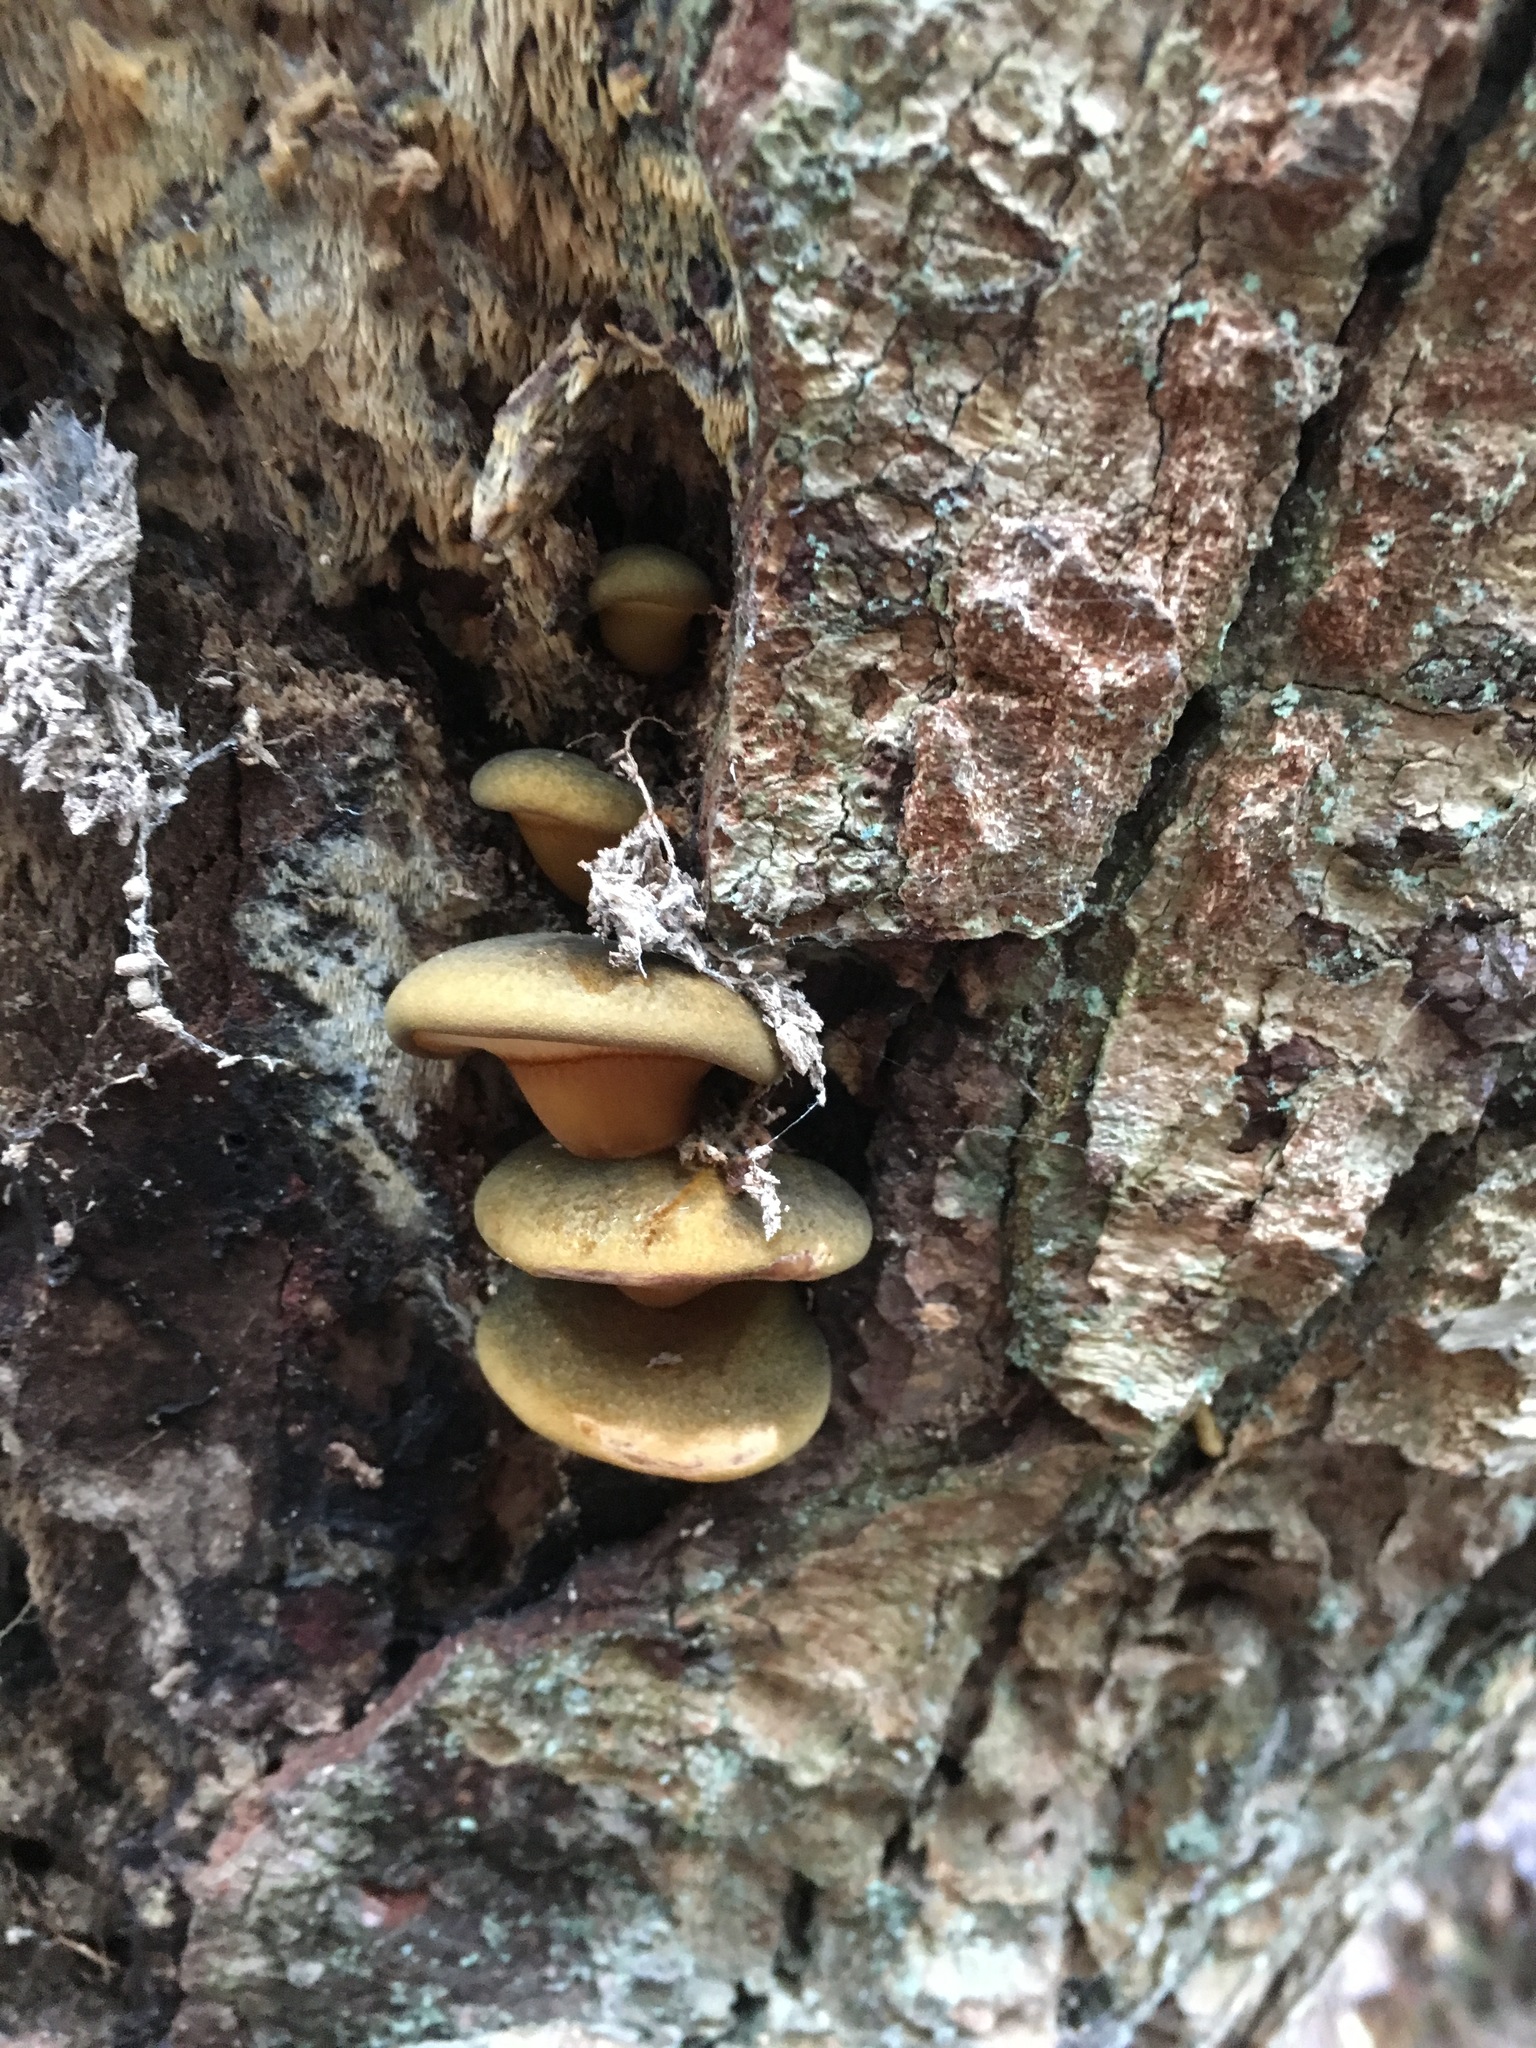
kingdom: Fungi
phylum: Basidiomycota
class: Agaricomycetes
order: Agaricales
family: Sarcomyxaceae
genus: Sarcomyxa
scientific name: Sarcomyxa serotina
